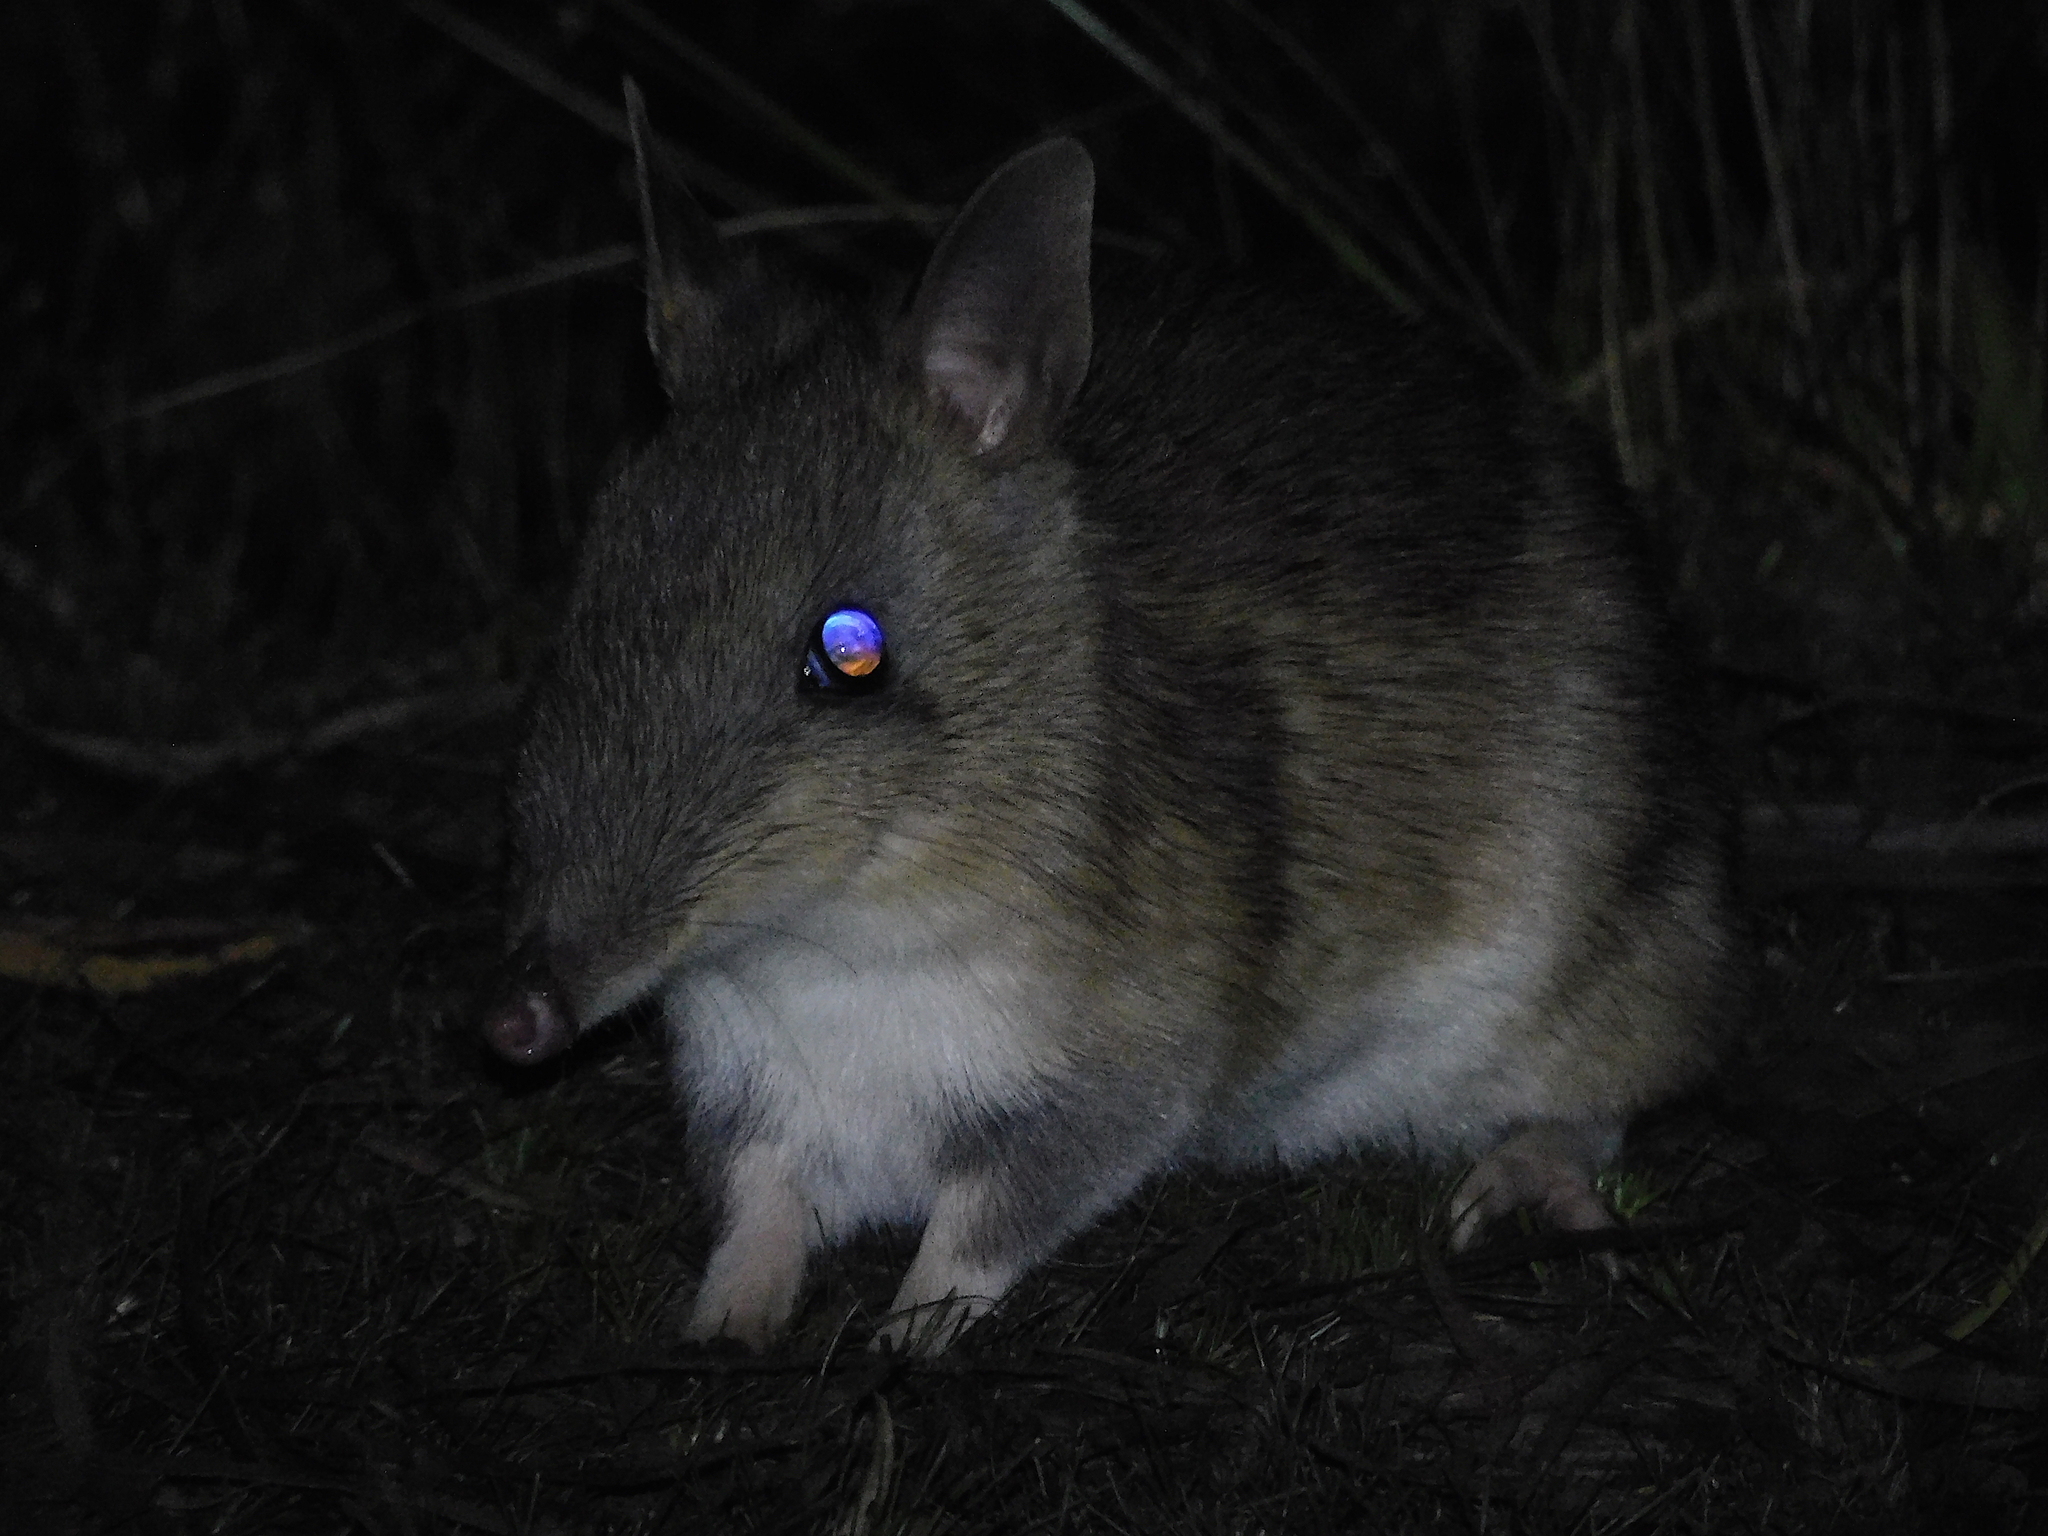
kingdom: Animalia
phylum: Chordata
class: Mammalia
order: Peramelemorphia
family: Peramelidae
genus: Perameles
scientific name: Perameles gunnii
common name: Eastern barred bandicoot
